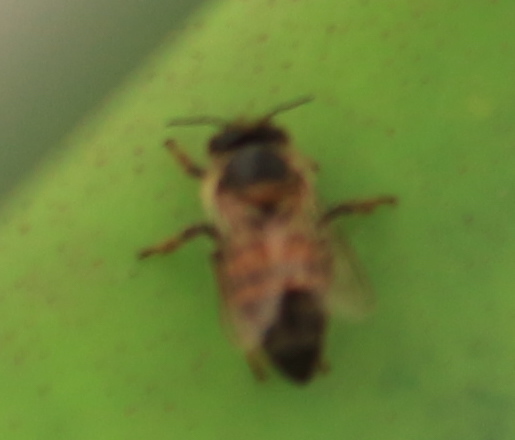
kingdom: Animalia
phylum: Arthropoda
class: Insecta
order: Hymenoptera
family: Apidae
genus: Apis
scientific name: Apis mellifera
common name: Honey bee
